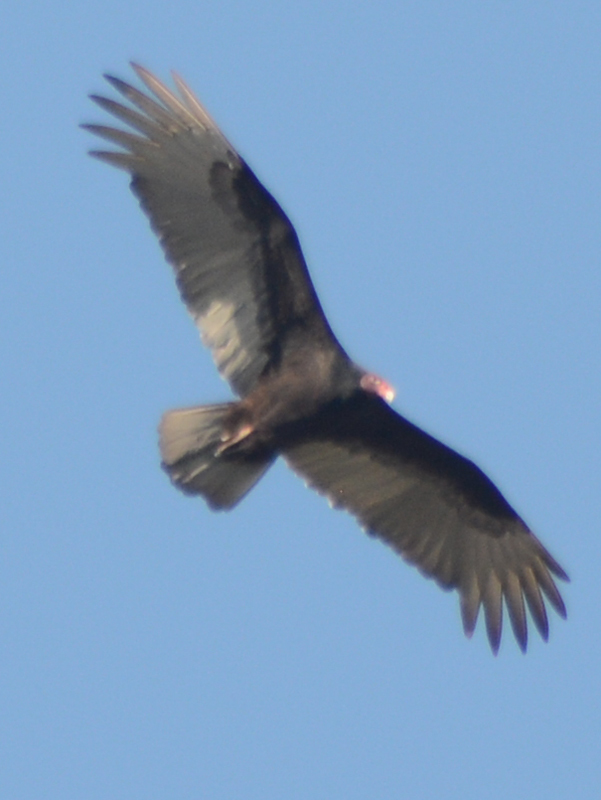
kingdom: Animalia
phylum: Chordata
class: Aves
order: Accipitriformes
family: Cathartidae
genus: Cathartes
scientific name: Cathartes aura
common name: Turkey vulture
